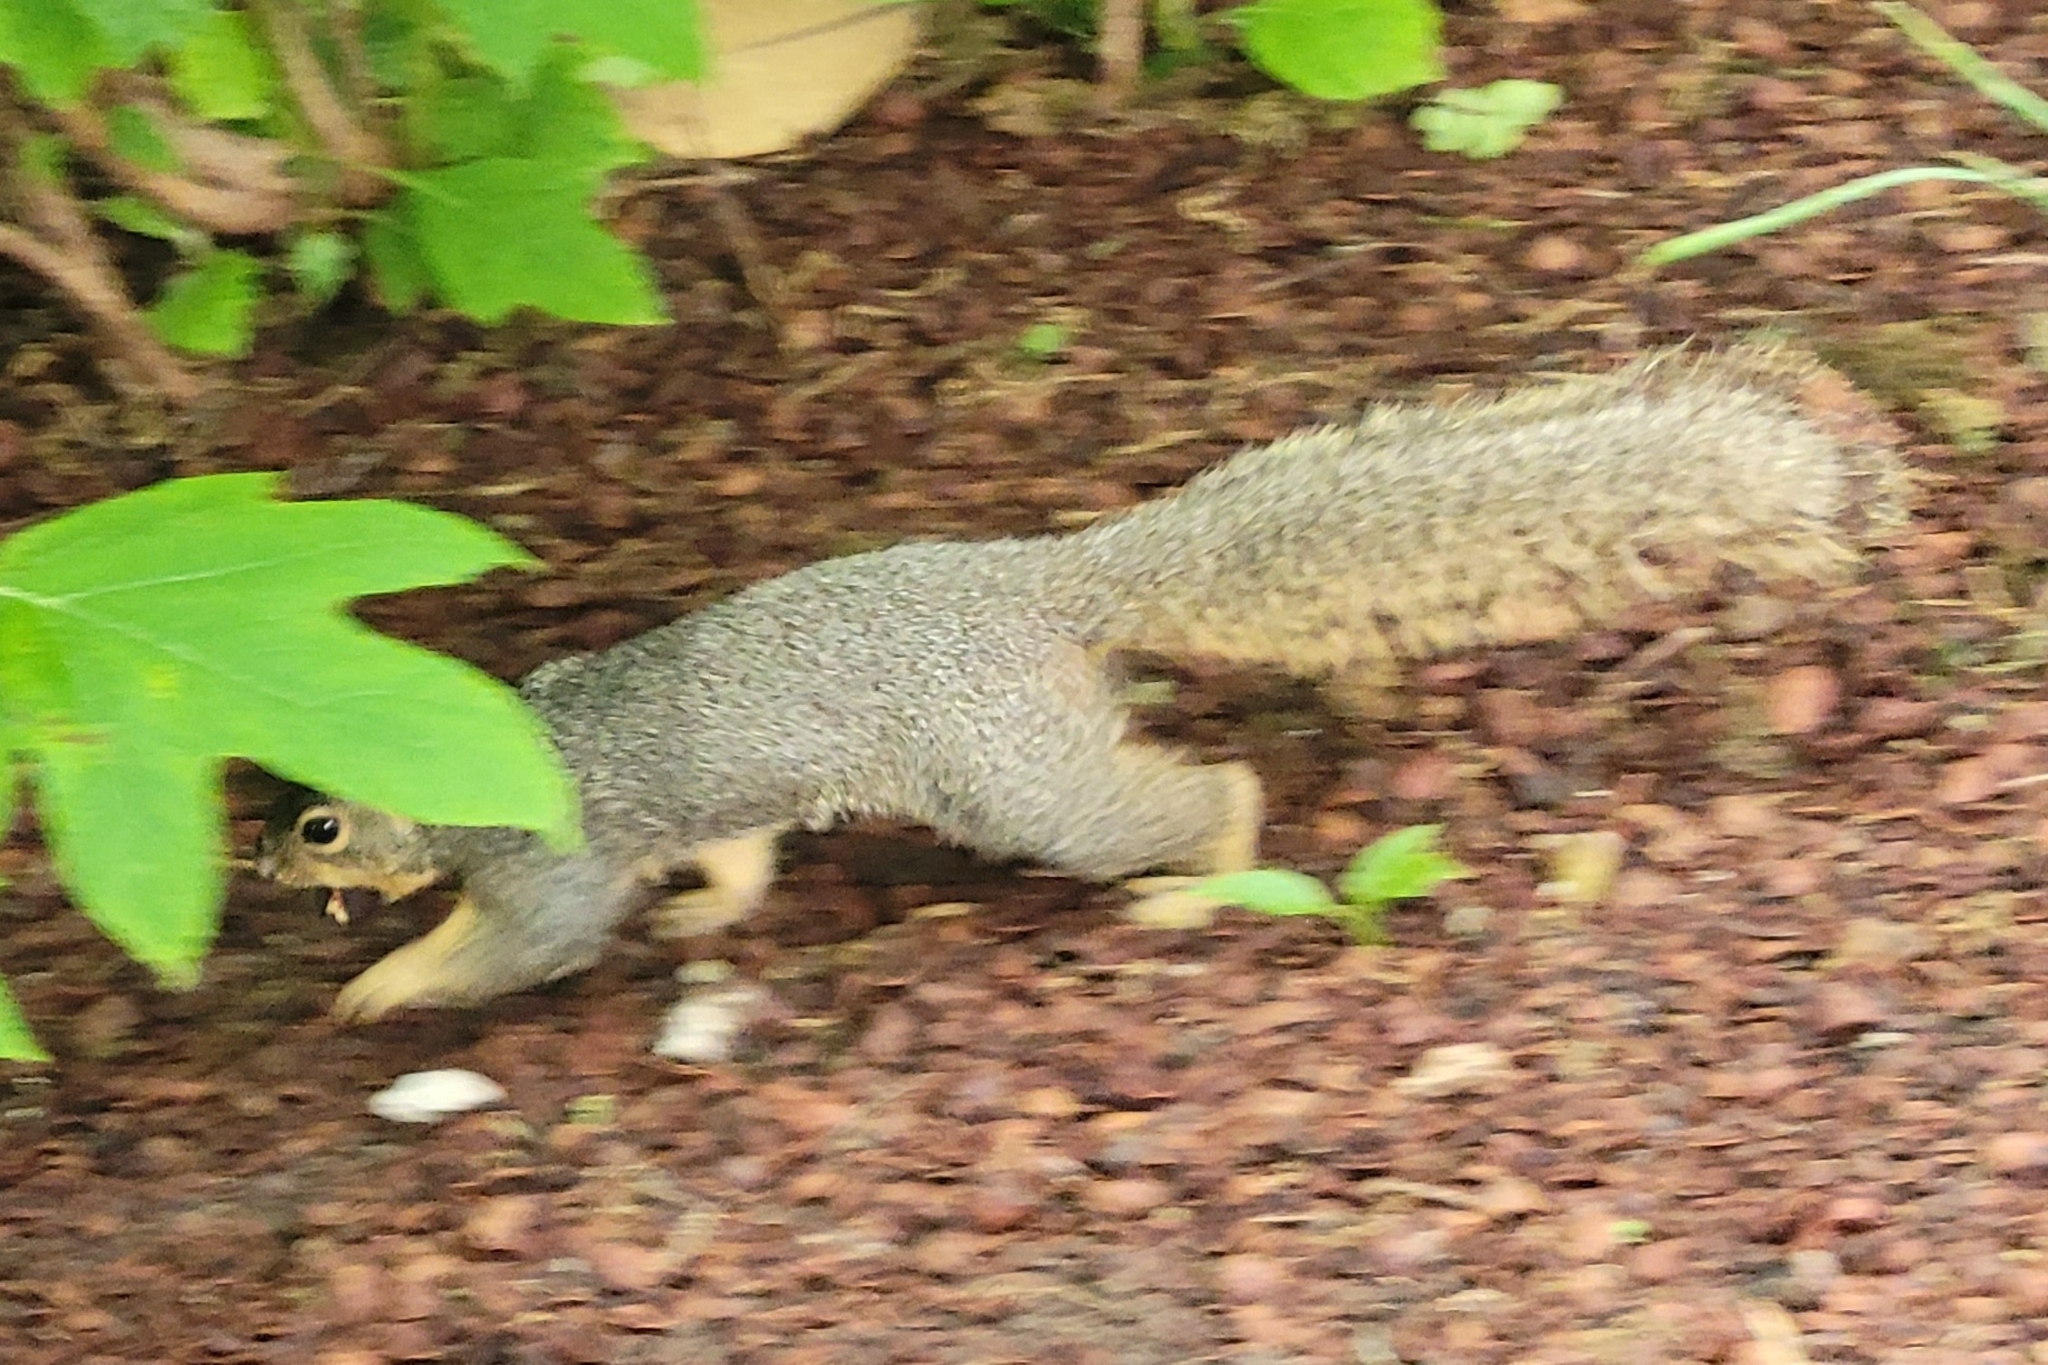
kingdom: Animalia
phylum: Chordata
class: Mammalia
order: Rodentia
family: Sciuridae
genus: Sciurus
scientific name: Sciurus niger
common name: Fox squirrel
